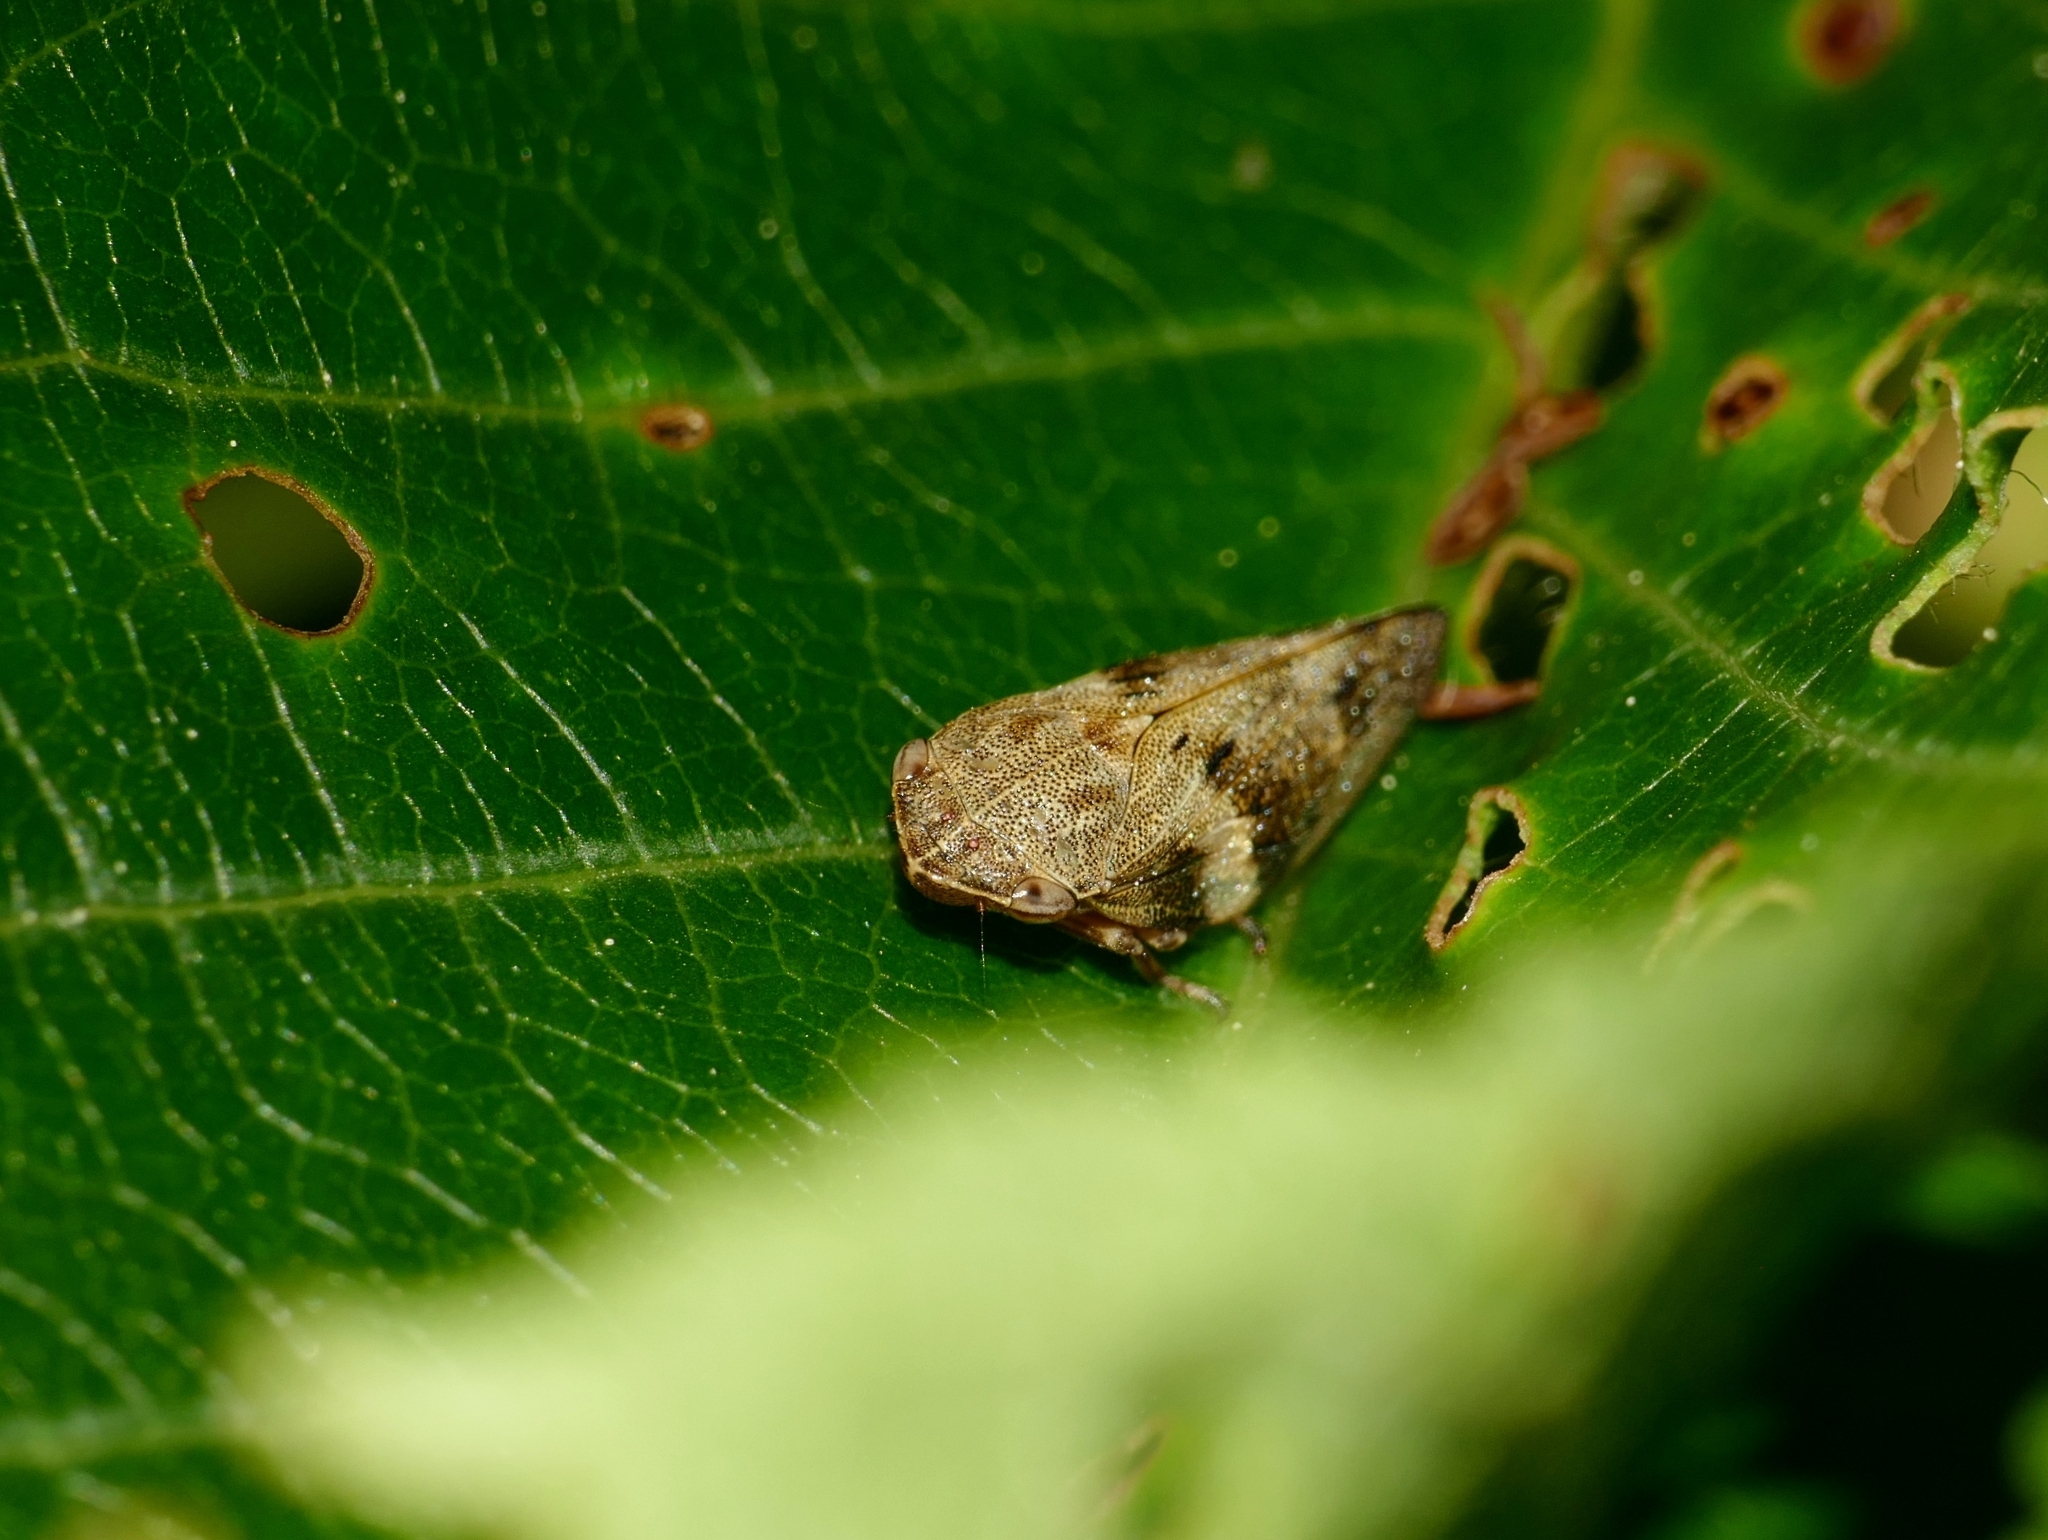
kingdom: Animalia
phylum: Arthropoda
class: Insecta
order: Hemiptera
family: Aphrophoridae
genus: Aphrophora
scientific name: Aphrophora alni
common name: European alder spittlebug
